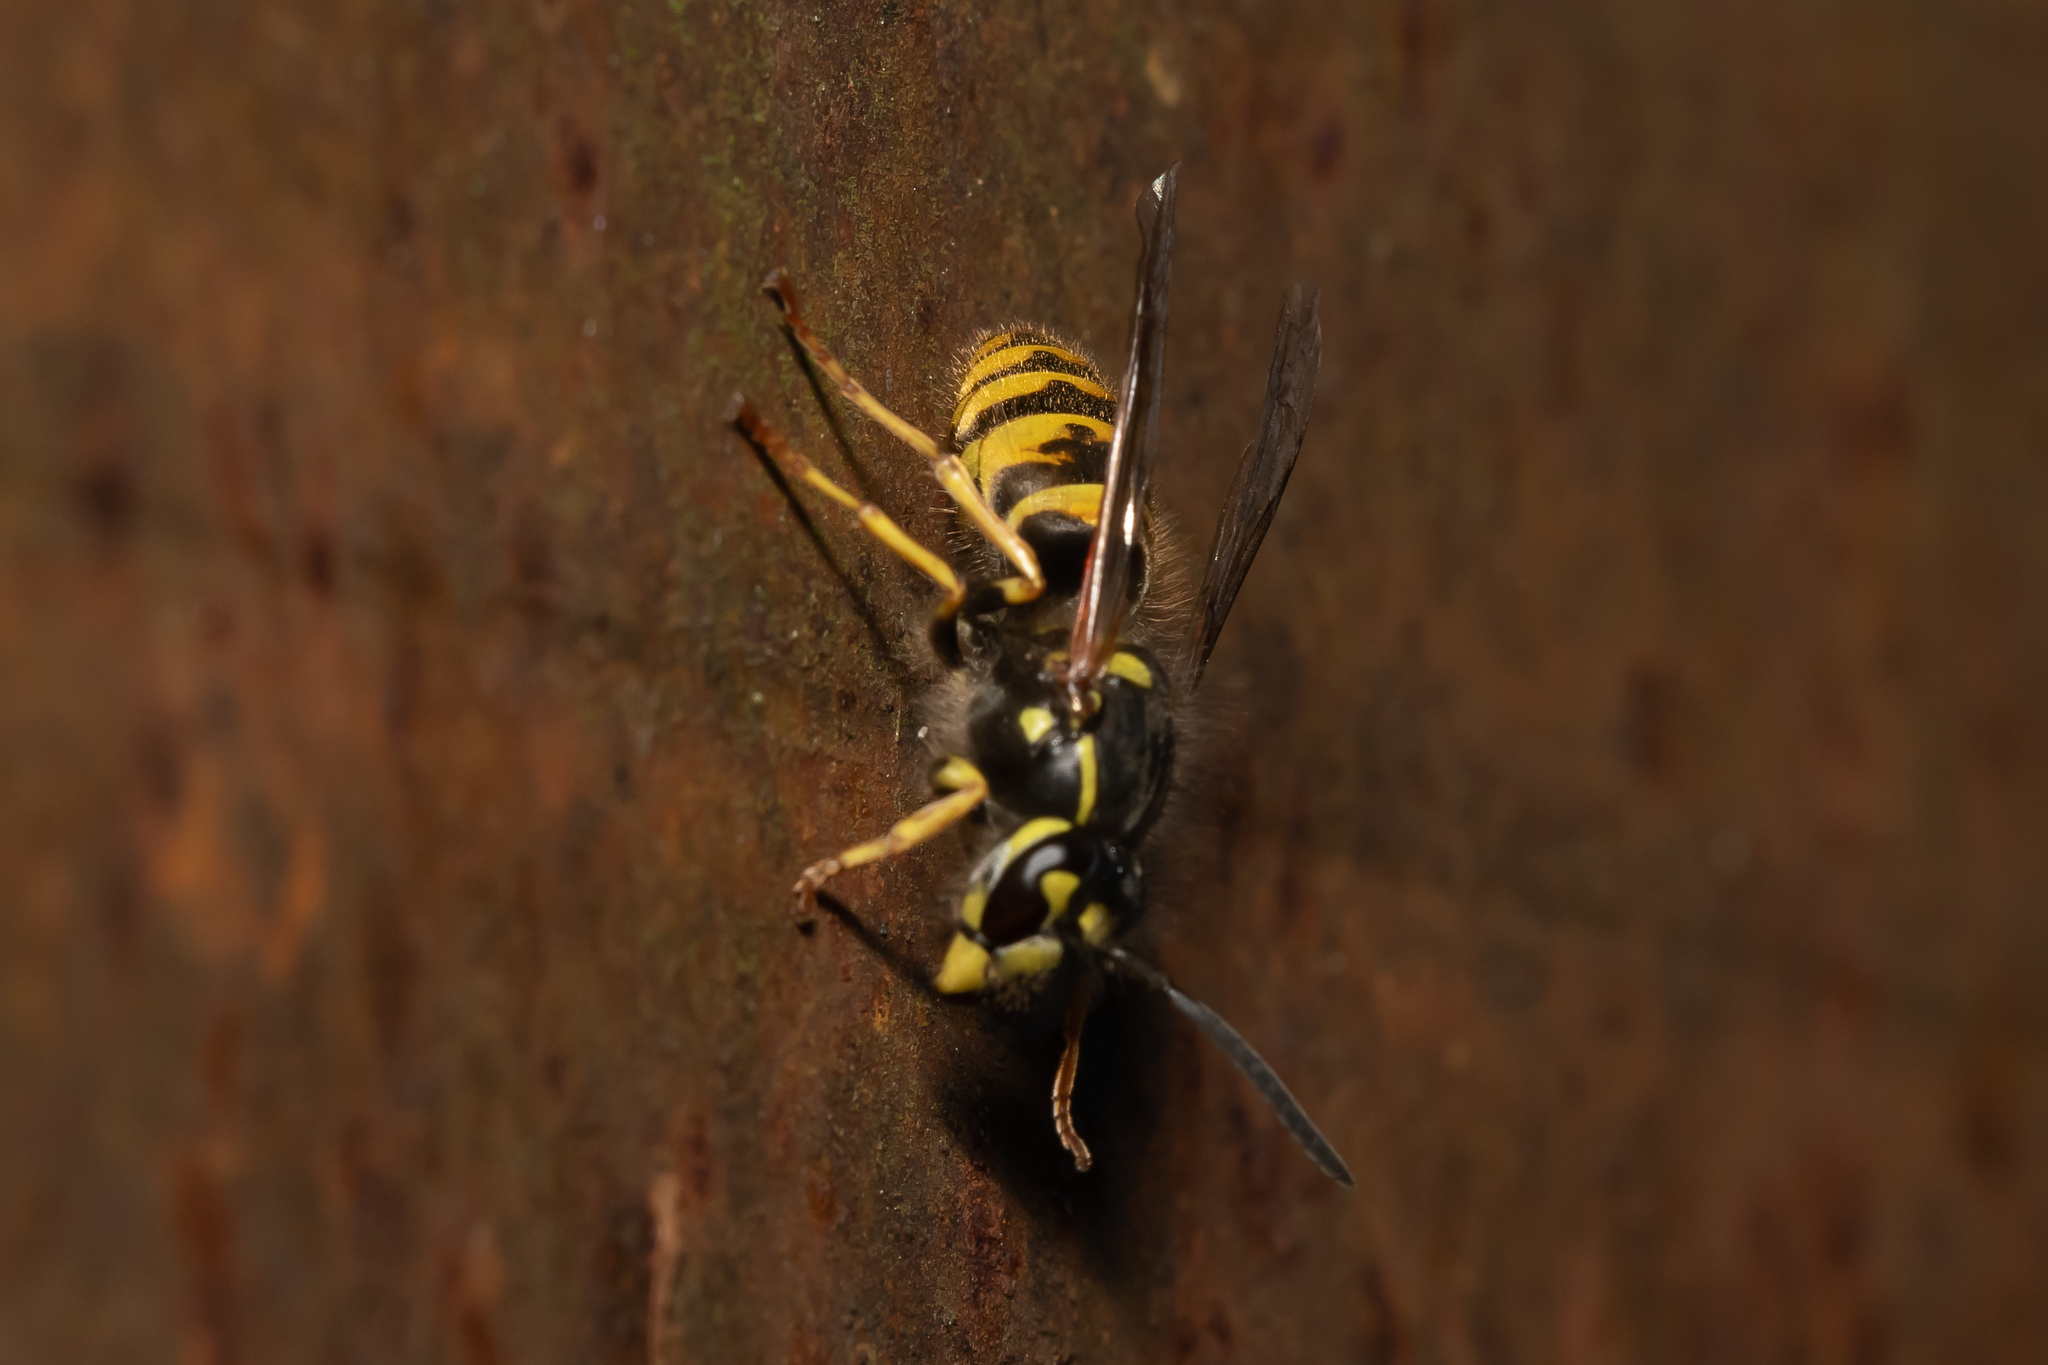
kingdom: Animalia
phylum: Arthropoda
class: Insecta
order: Hymenoptera
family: Vespidae
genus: Vespula
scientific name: Vespula vulgaris
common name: Common wasp
